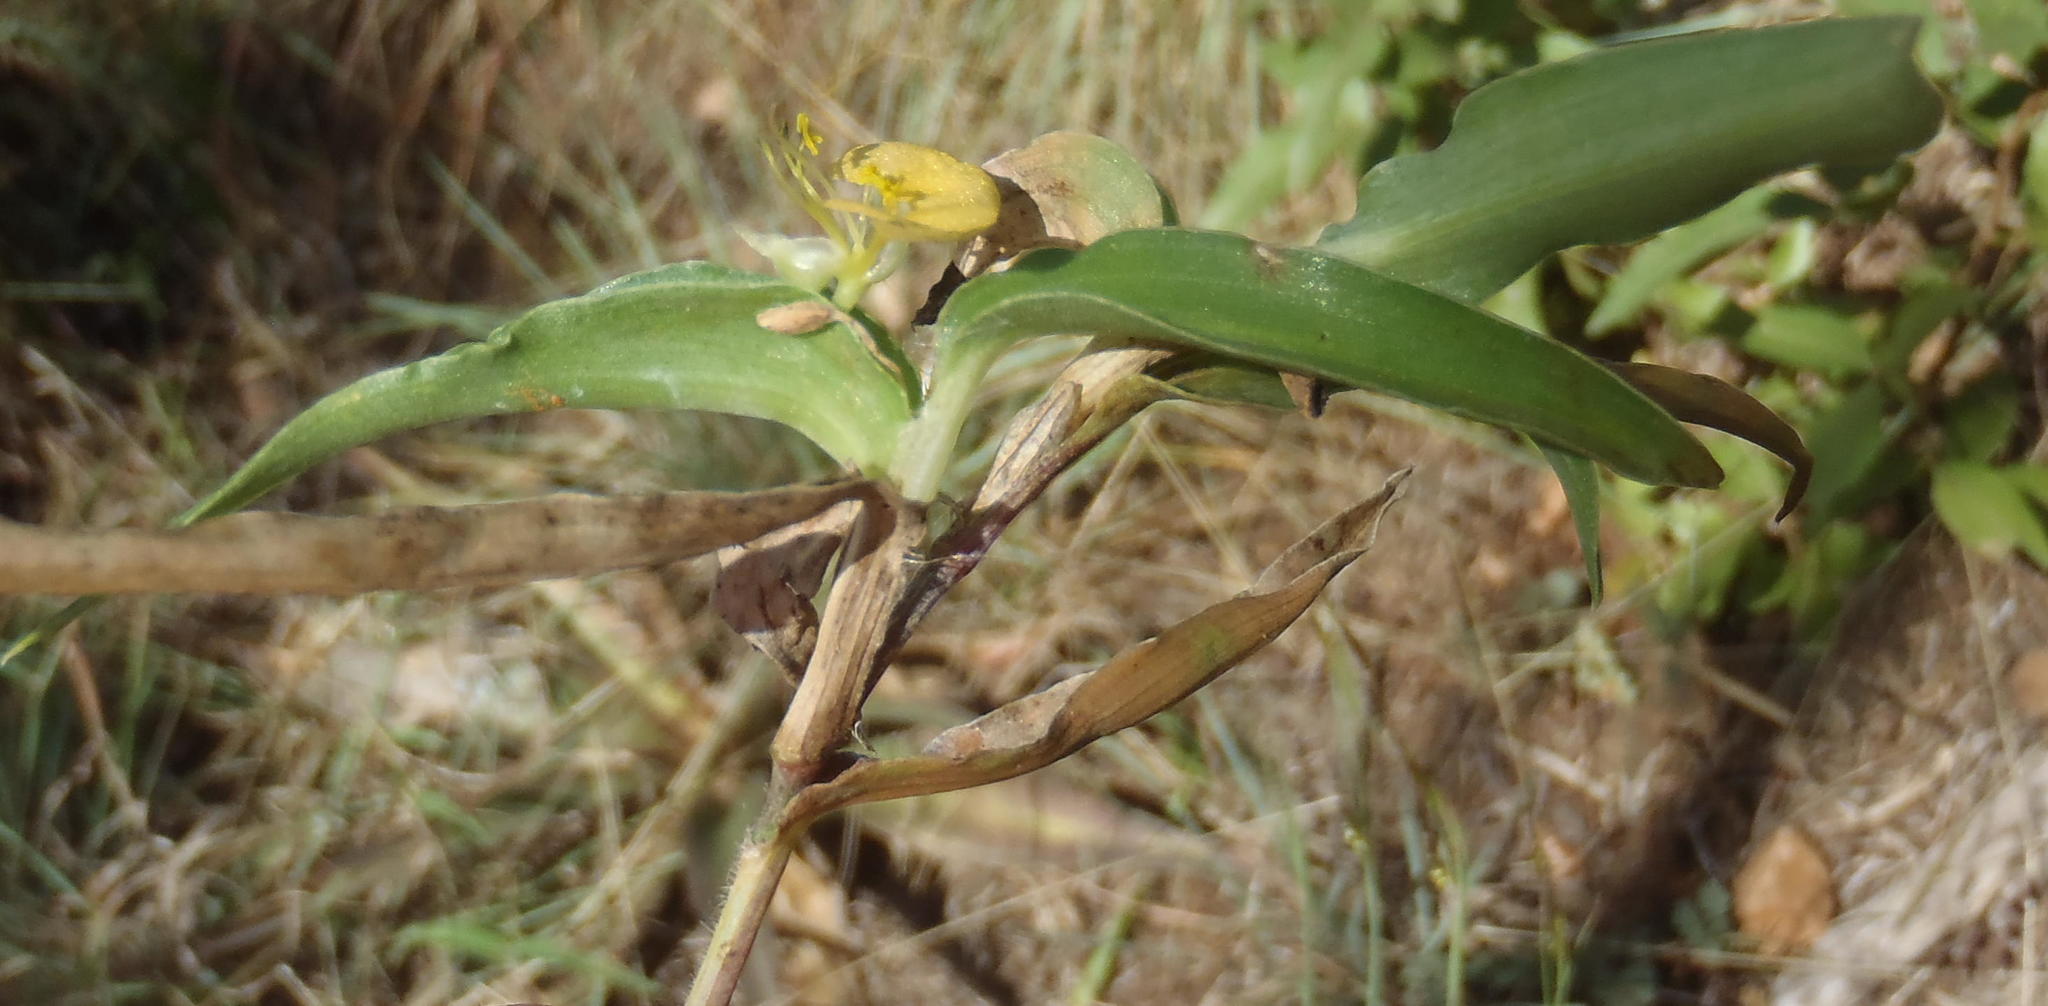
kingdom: Plantae
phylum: Tracheophyta
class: Liliopsida
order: Commelinales
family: Commelinaceae
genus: Commelina
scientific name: Commelina africana
